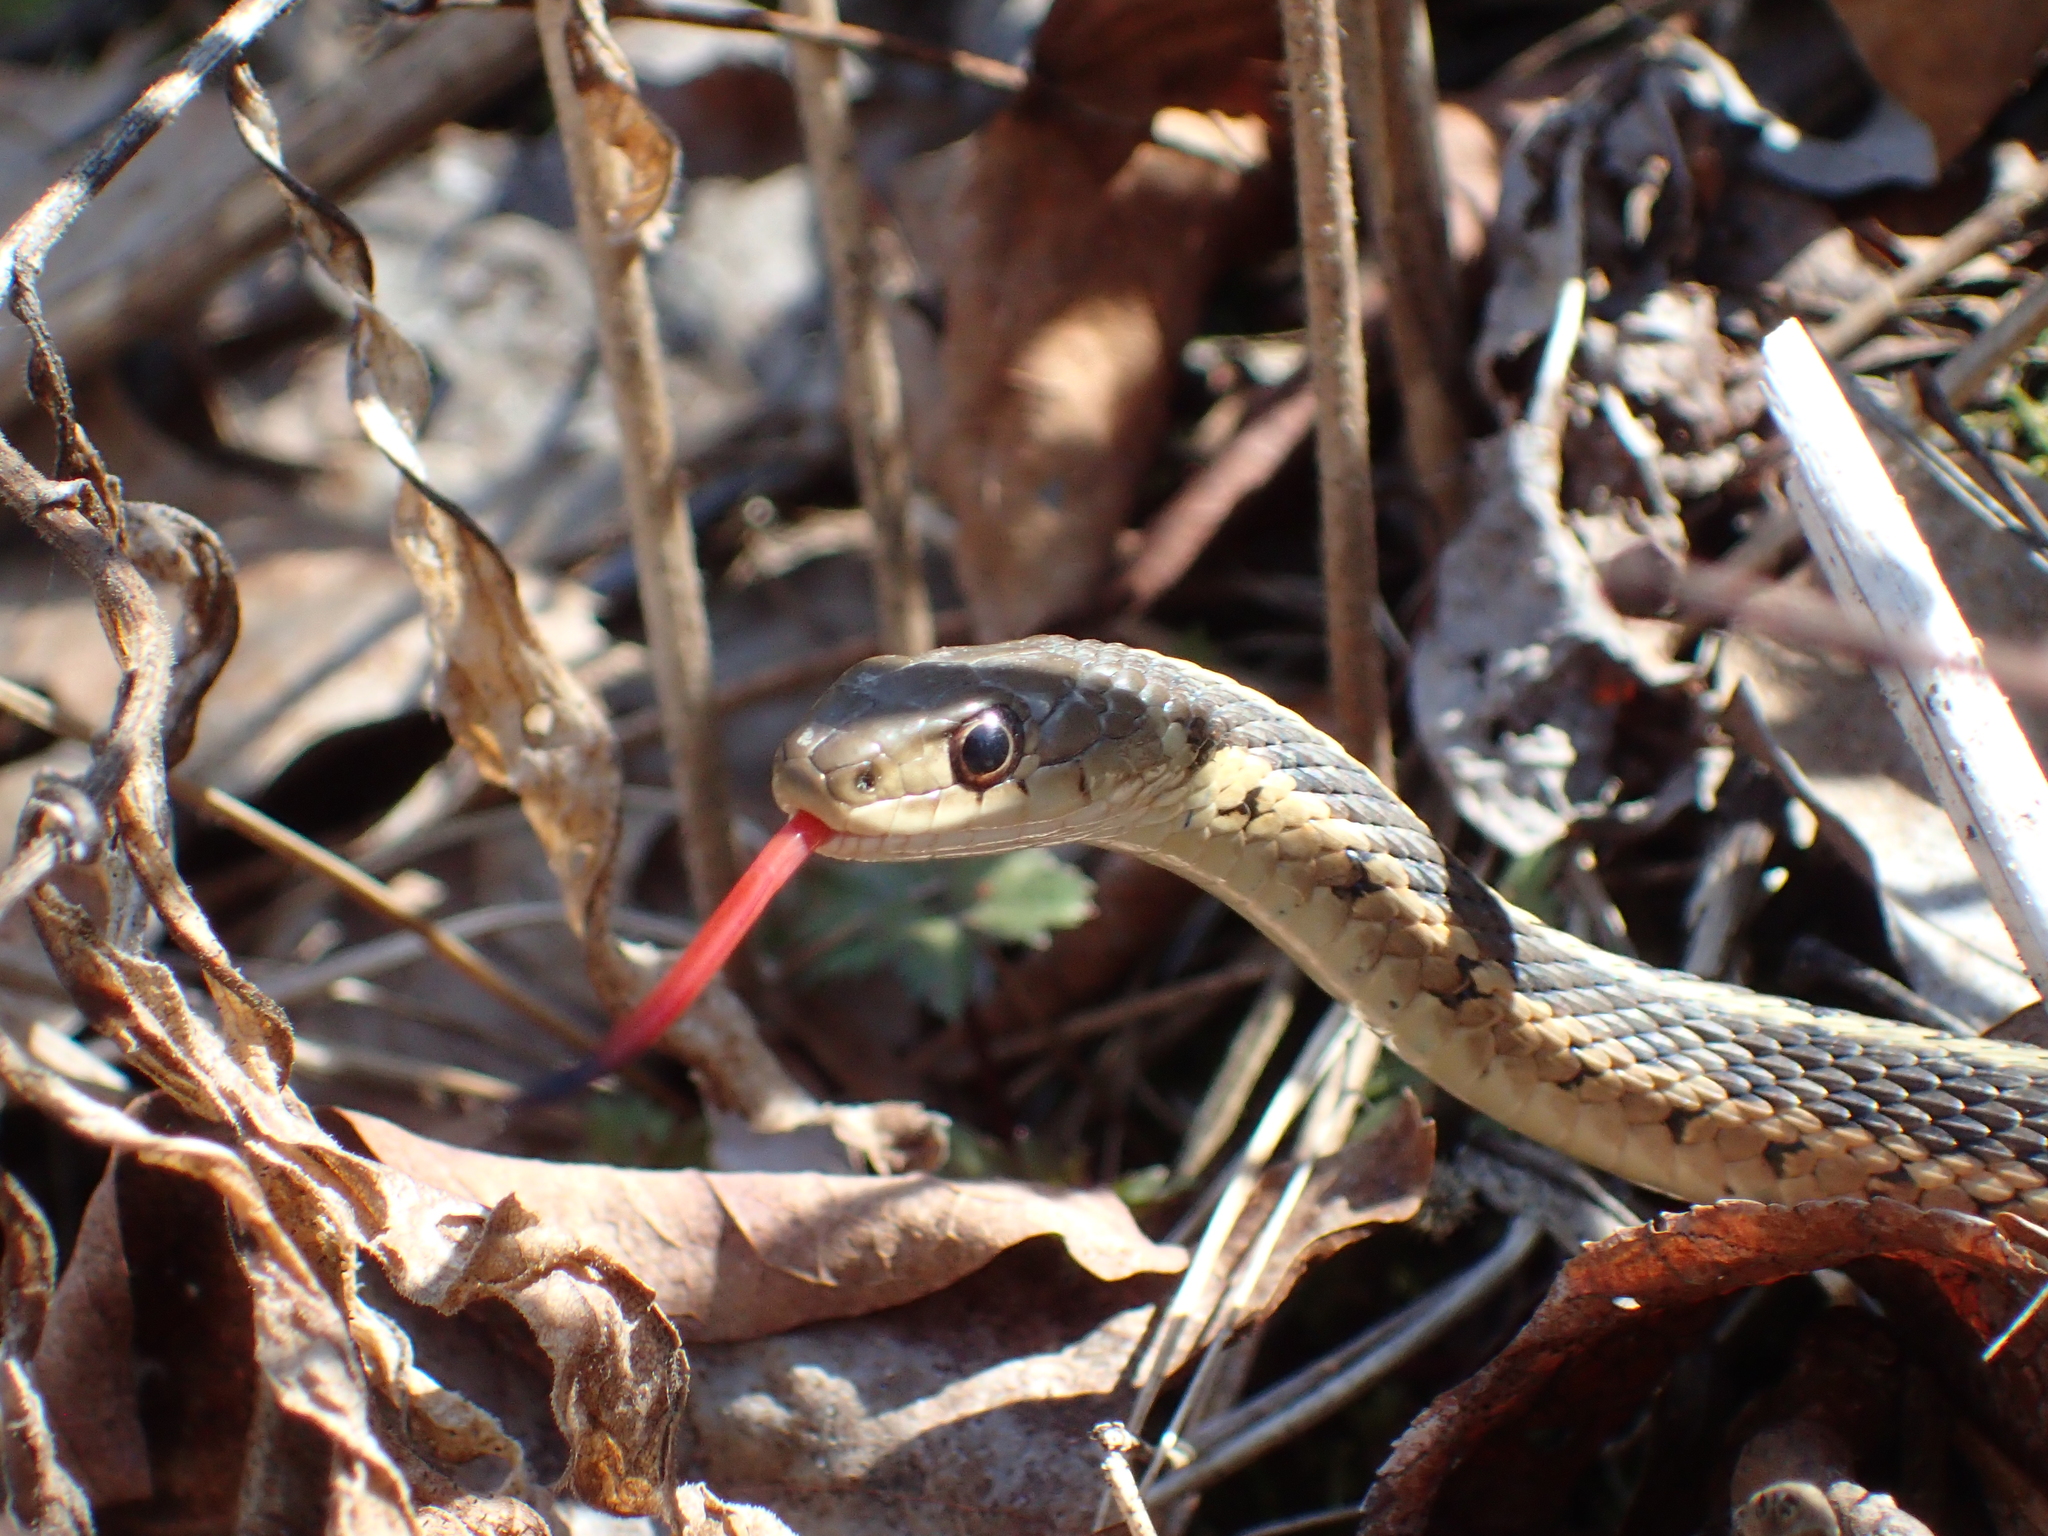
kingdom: Animalia
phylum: Chordata
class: Squamata
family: Colubridae
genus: Thamnophis
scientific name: Thamnophis sirtalis
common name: Common garter snake
